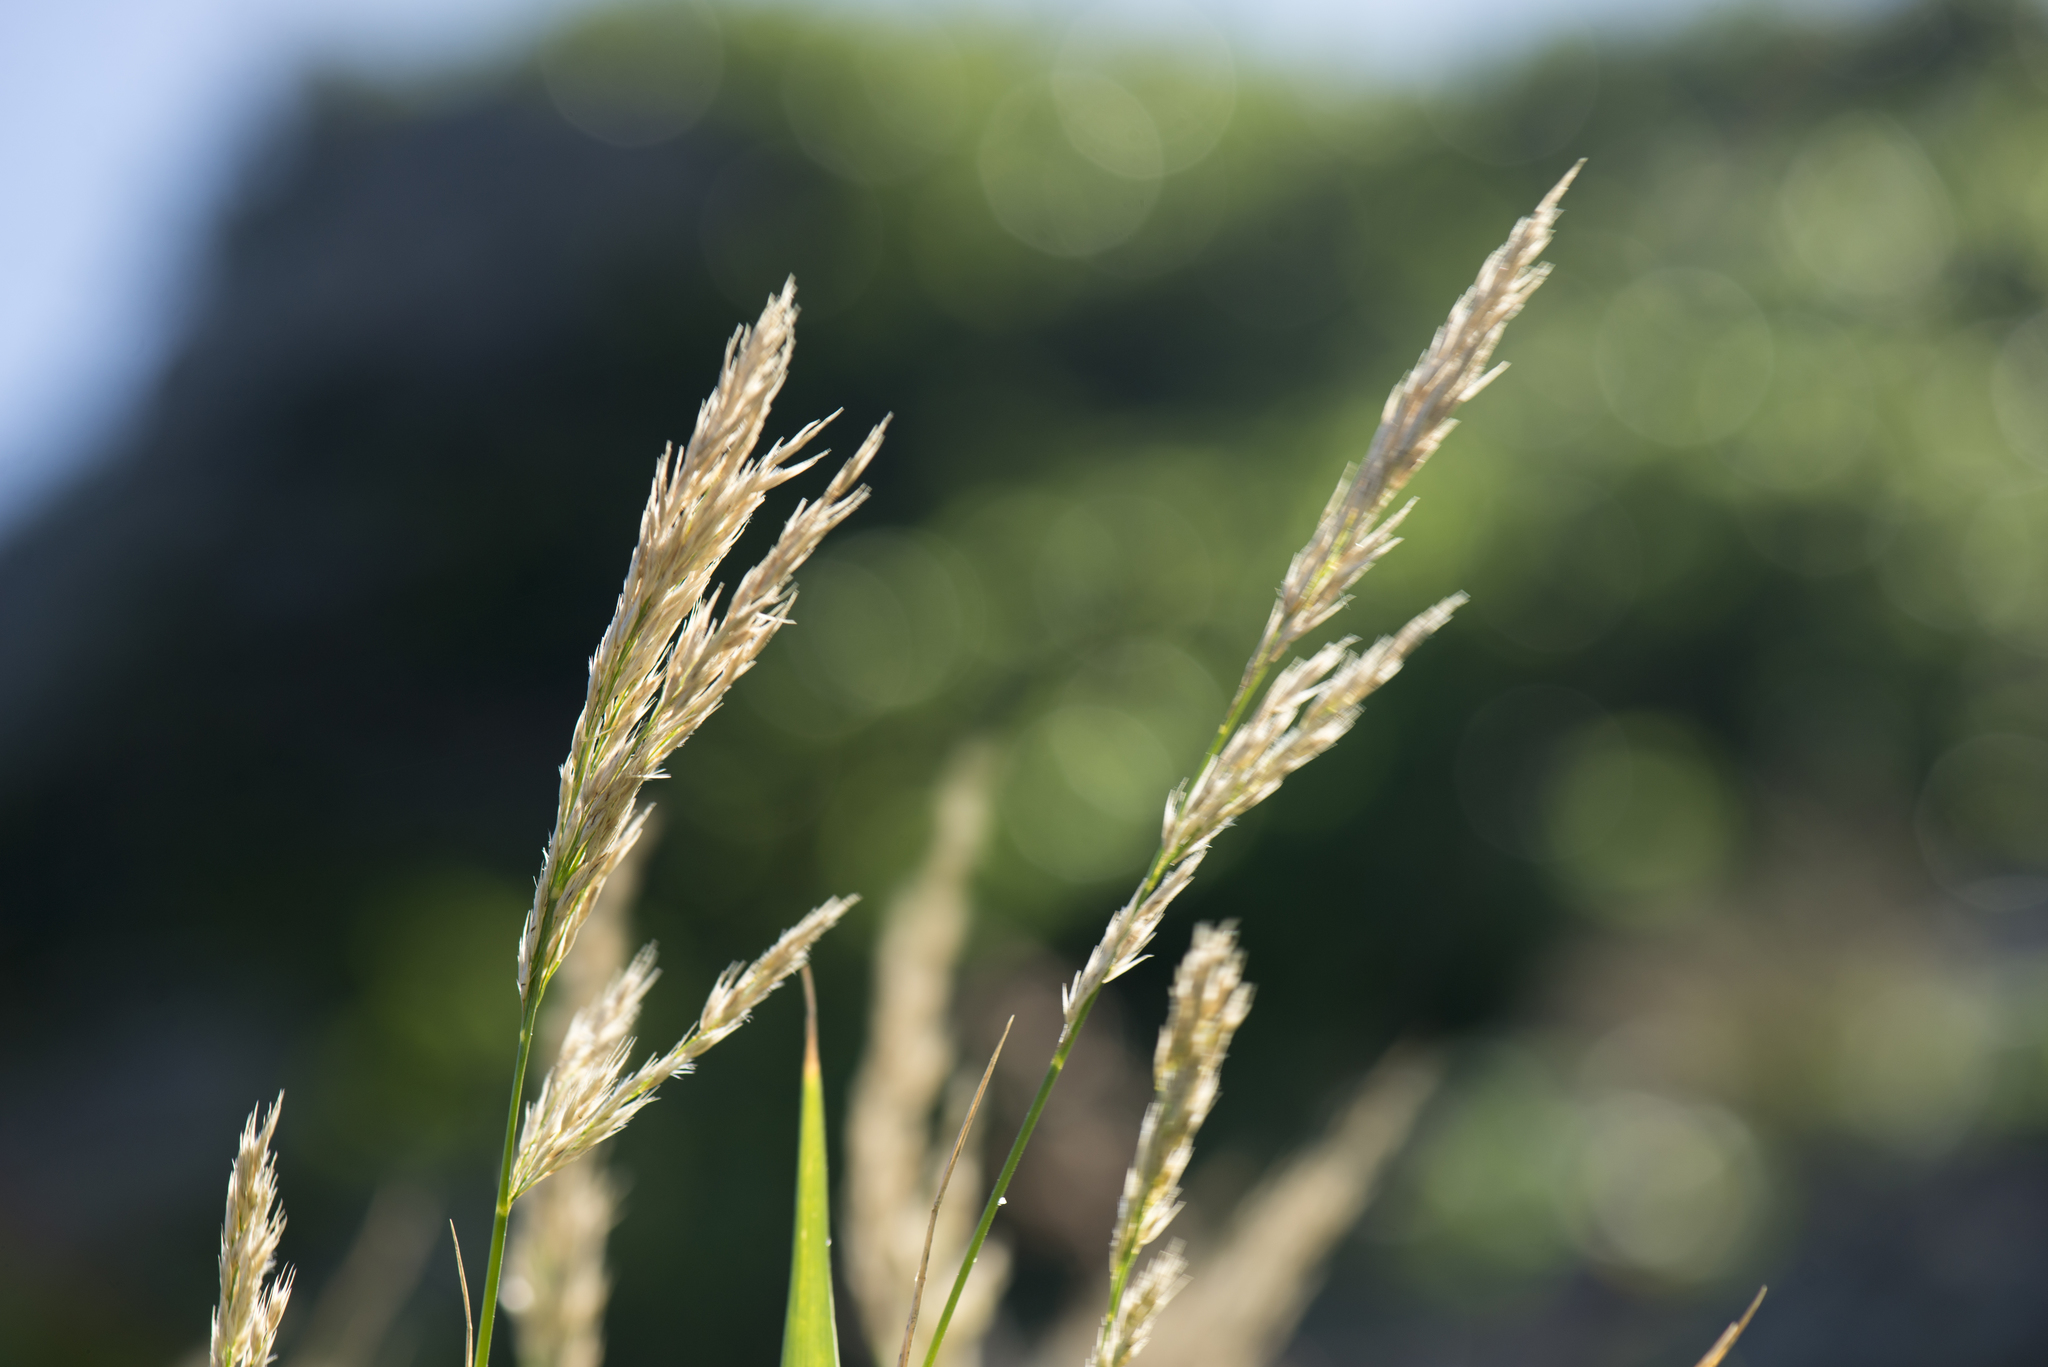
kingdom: Plantae
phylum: Tracheophyta
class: Liliopsida
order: Poales
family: Poaceae
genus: Arundo
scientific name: Arundo formosana
